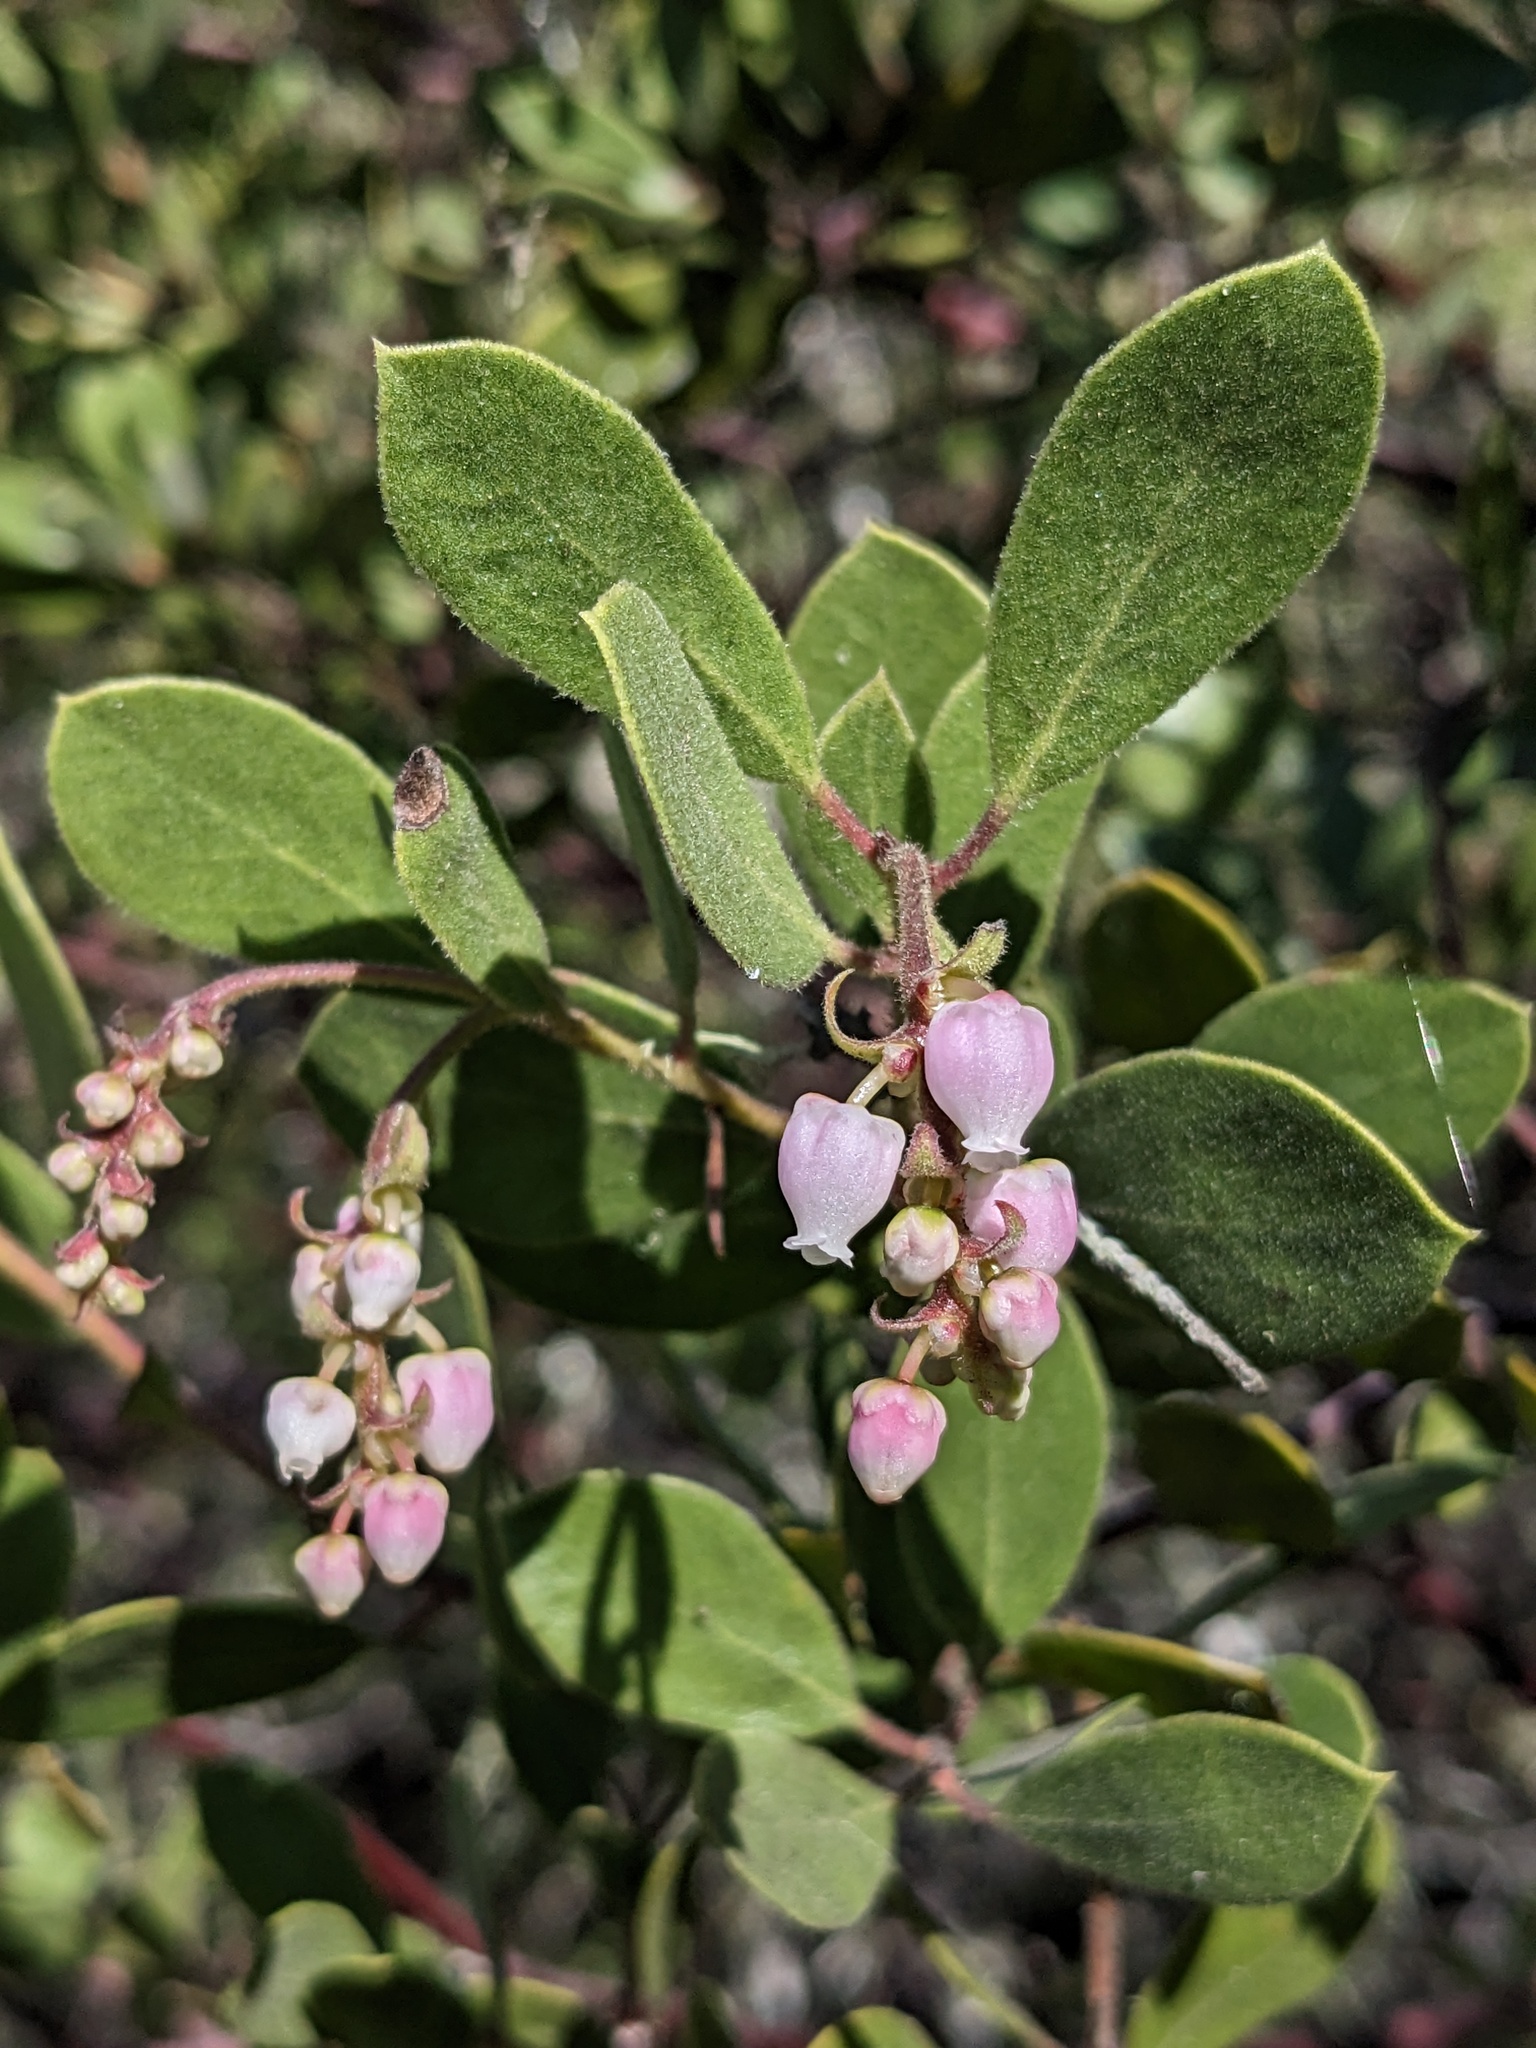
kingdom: Plantae
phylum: Tracheophyta
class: Magnoliopsida
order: Ericales
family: Ericaceae
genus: Arctostaphylos
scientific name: Arctostaphylos bakeri
